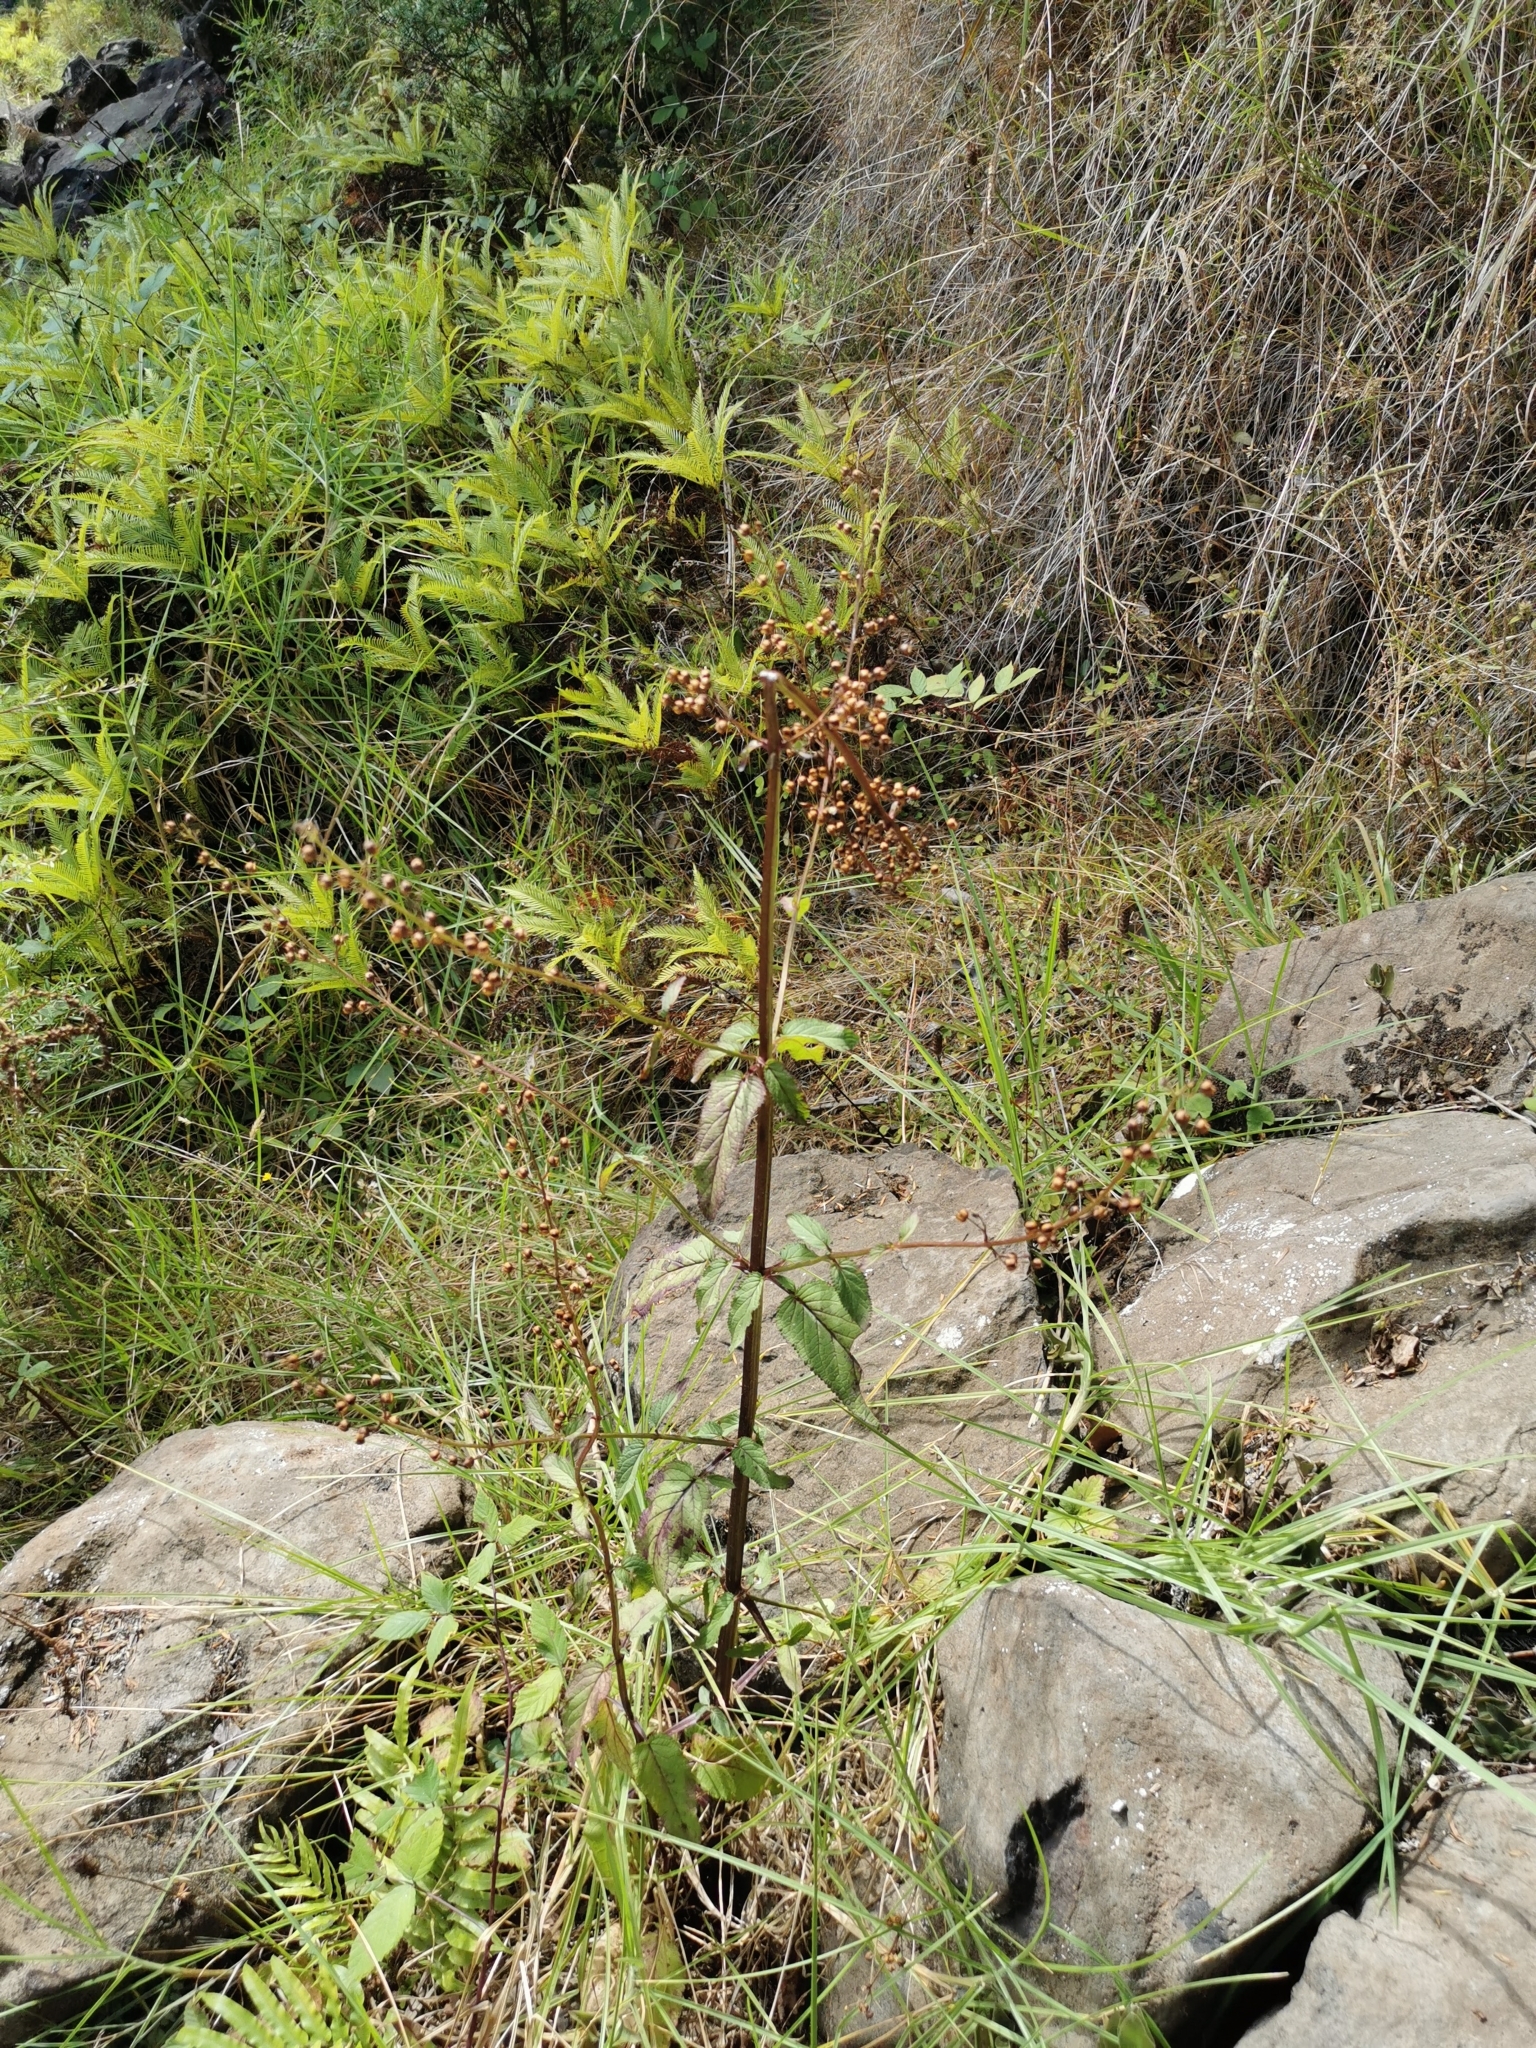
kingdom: Plantae
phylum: Tracheophyta
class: Magnoliopsida
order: Lamiales
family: Scrophulariaceae
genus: Scrophularia
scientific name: Scrophularia auriculata
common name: Water betony
